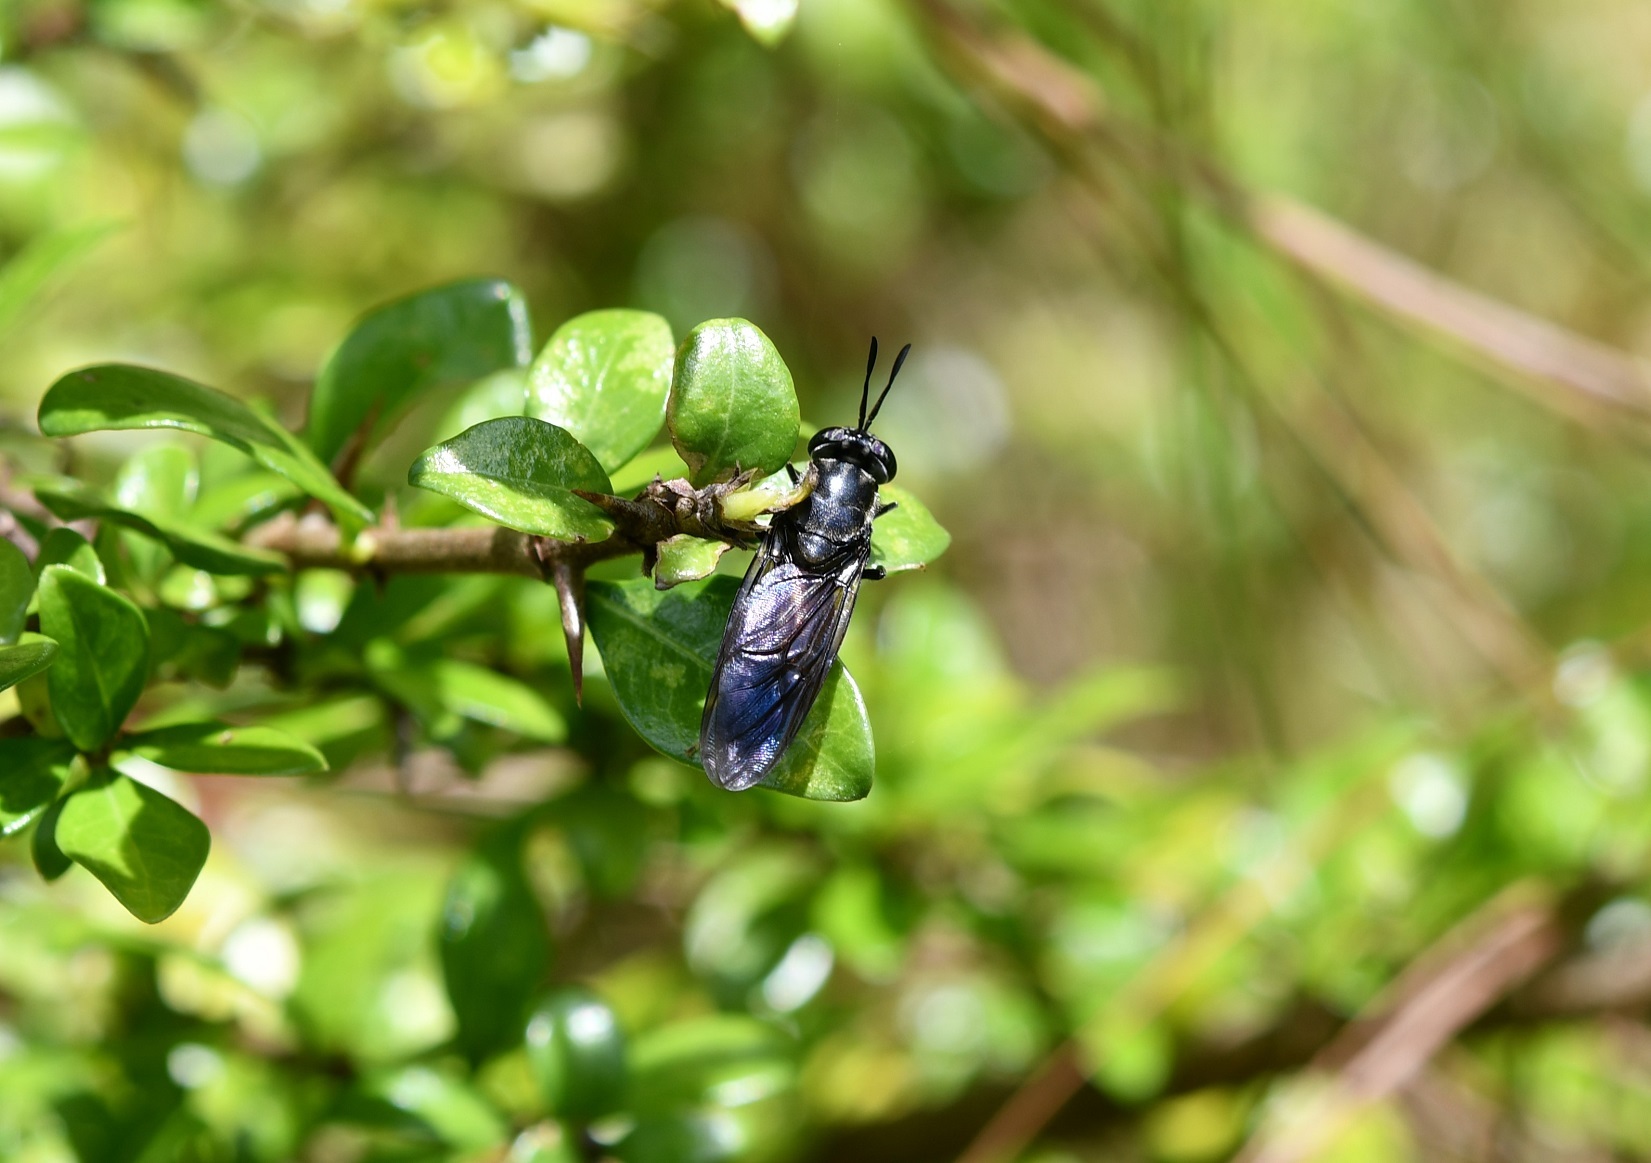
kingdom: Animalia
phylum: Arthropoda
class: Insecta
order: Diptera
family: Stratiomyidae
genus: Hermetia
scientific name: Hermetia illucens
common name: Black soldier fly
